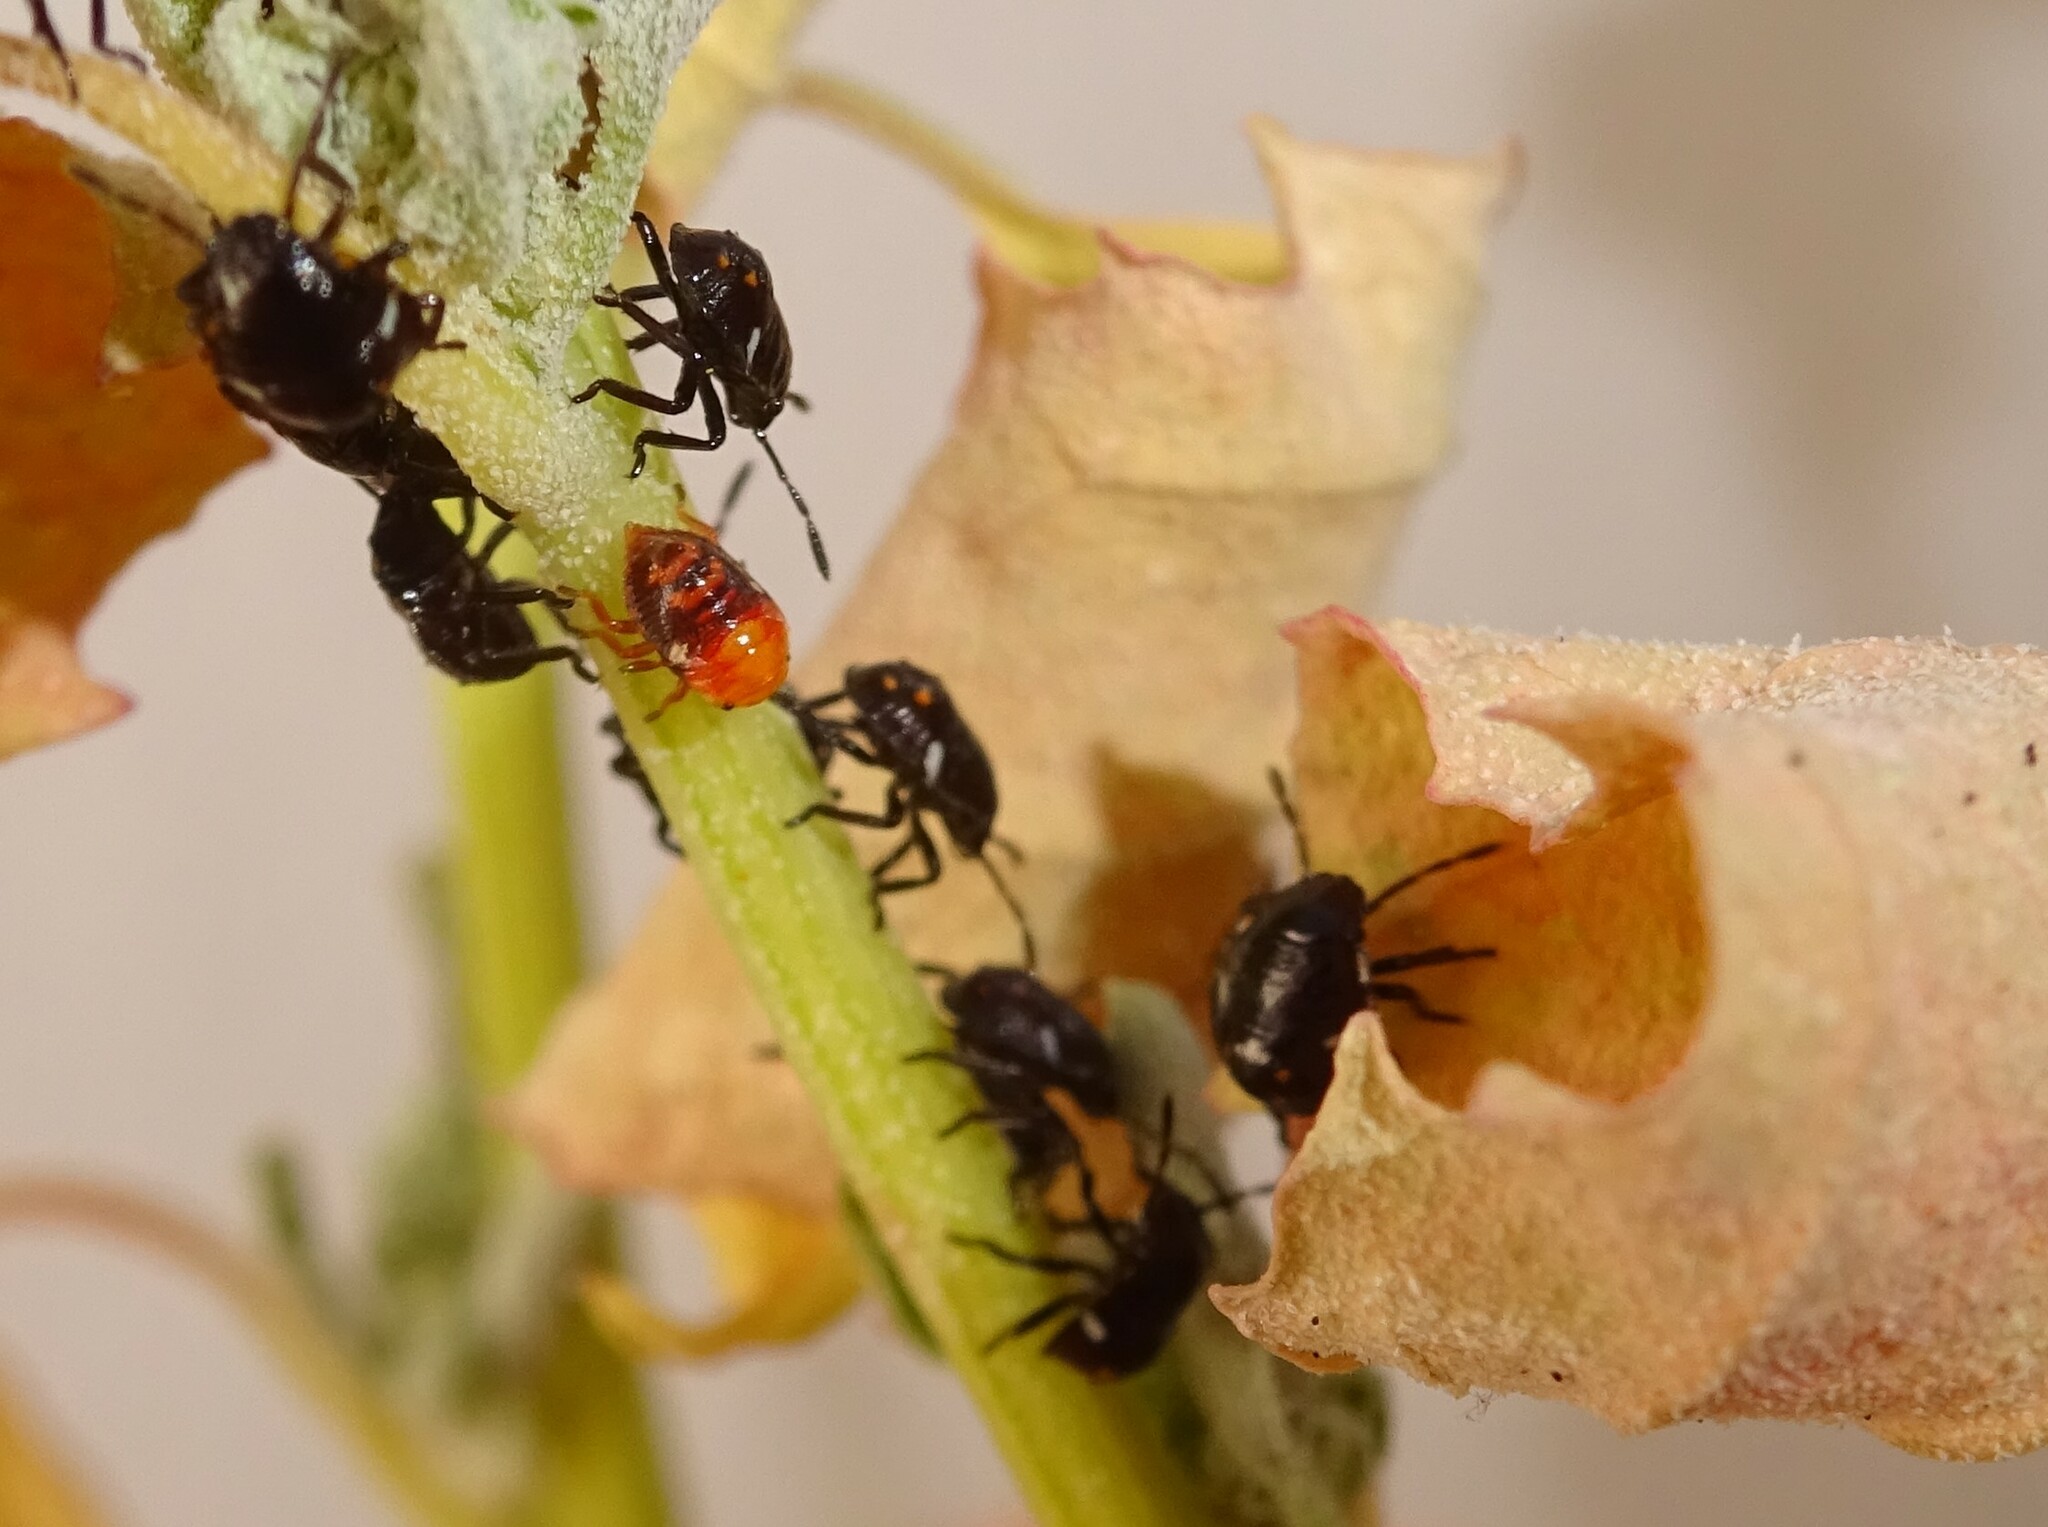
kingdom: Animalia
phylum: Arthropoda
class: Insecta
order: Hemiptera
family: Pentatomidae
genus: Nezara
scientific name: Nezara viridula
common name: Southern green stink bug
